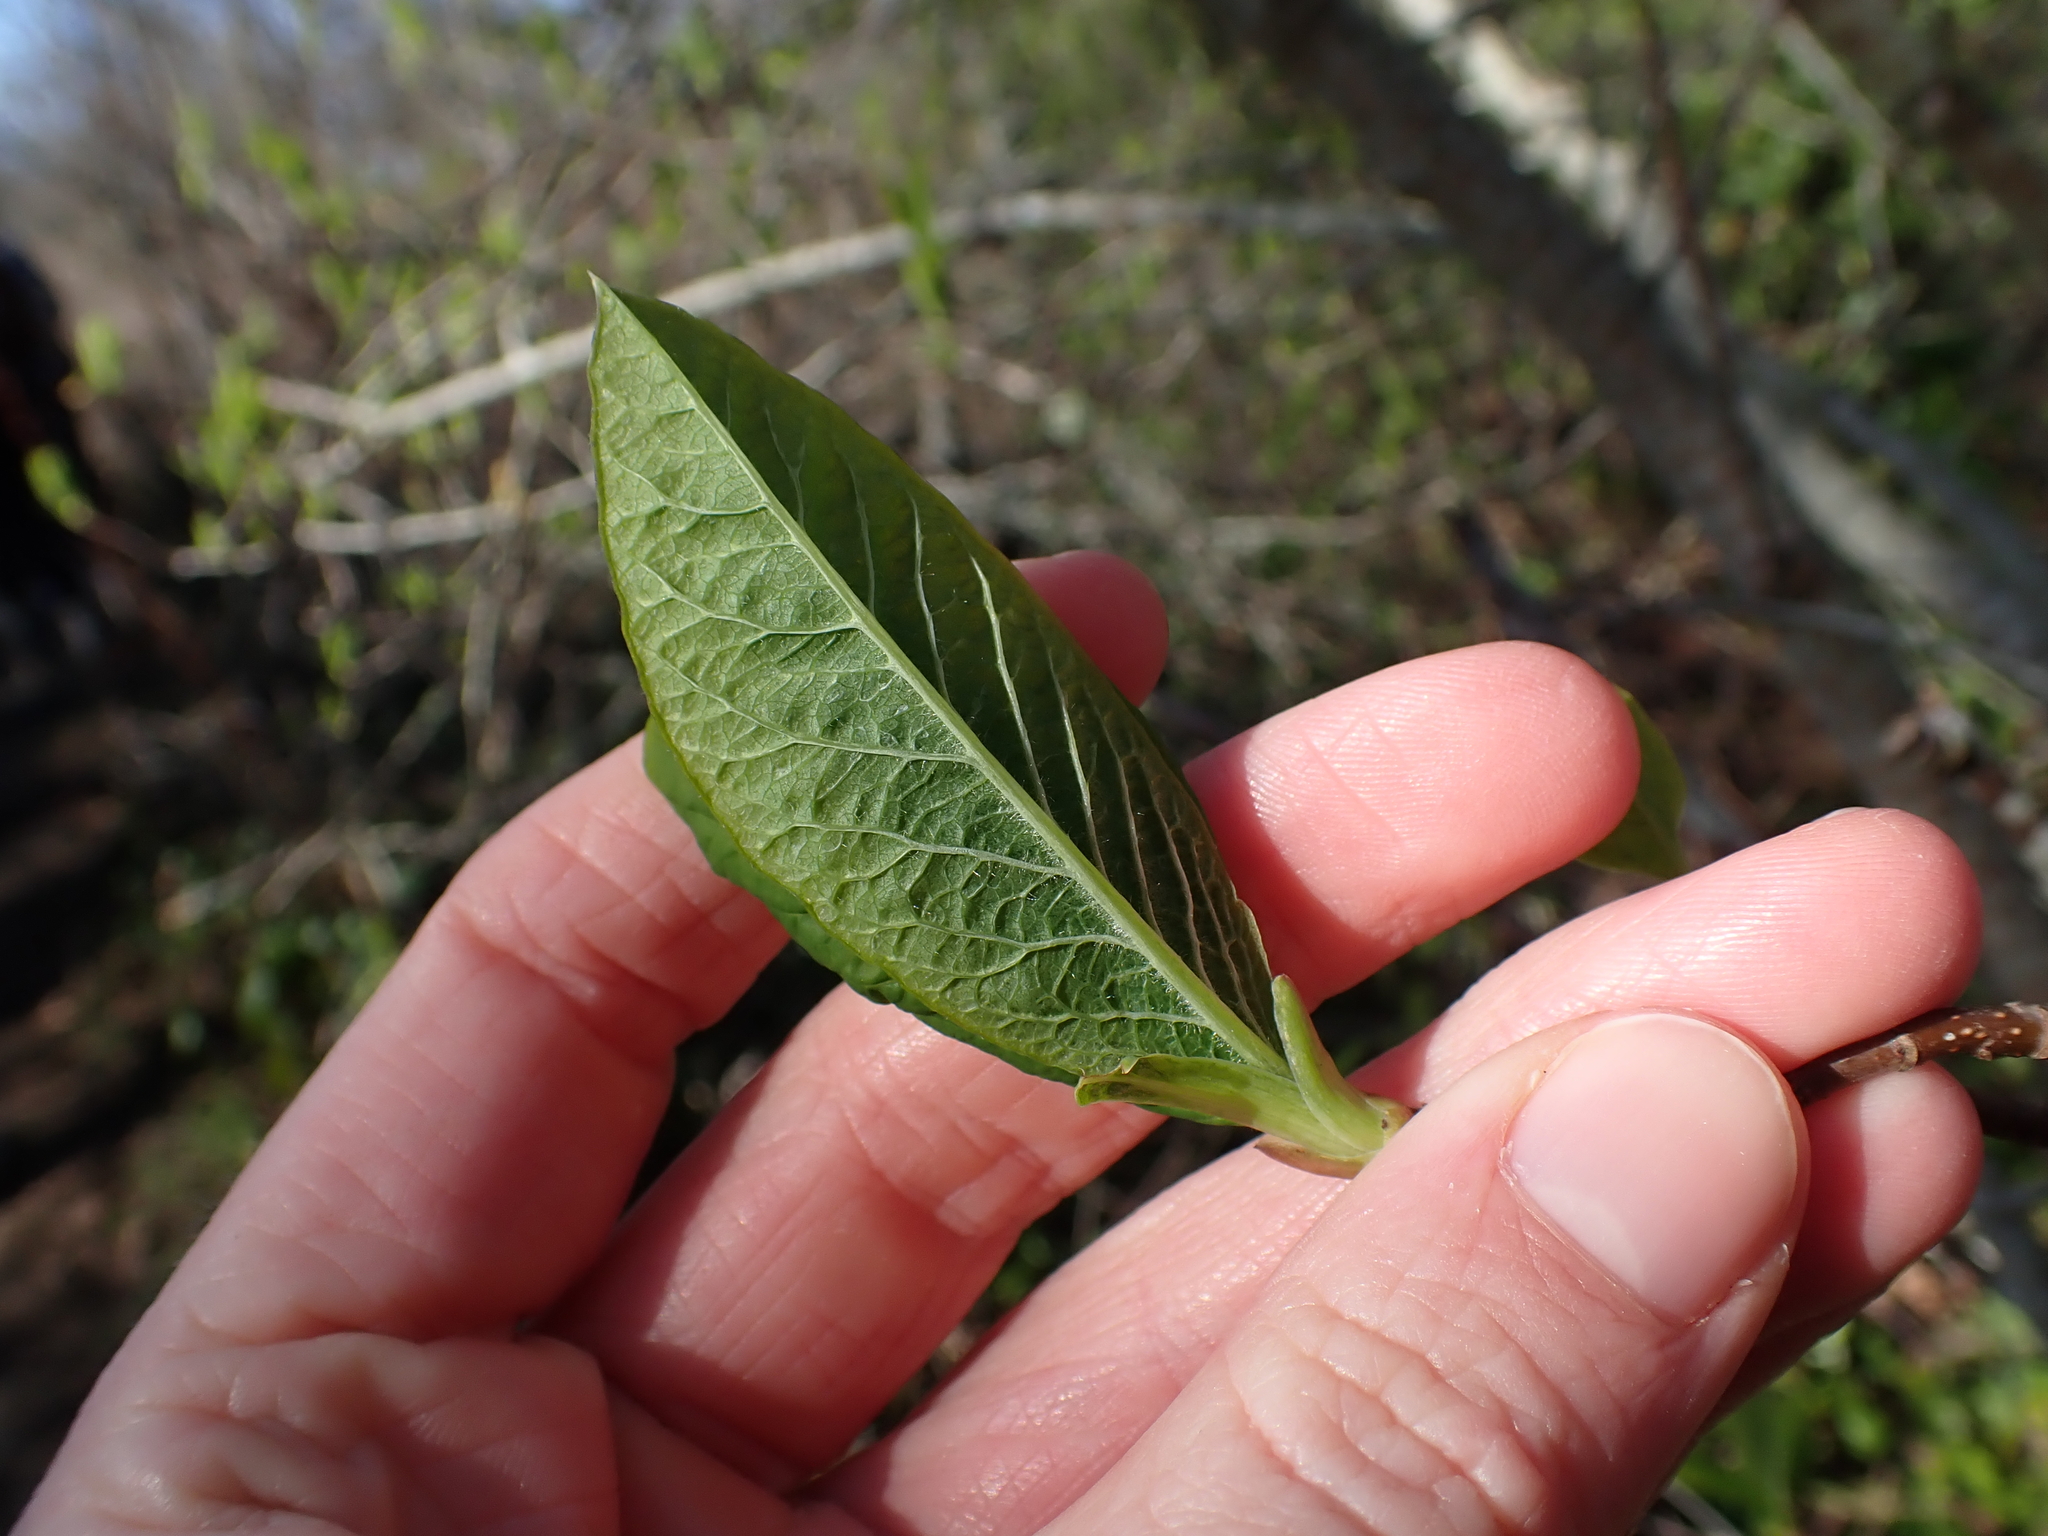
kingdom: Plantae
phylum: Tracheophyta
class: Magnoliopsida
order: Rosales
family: Rosaceae
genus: Oemleria
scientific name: Oemleria cerasiformis
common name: Osoberry
